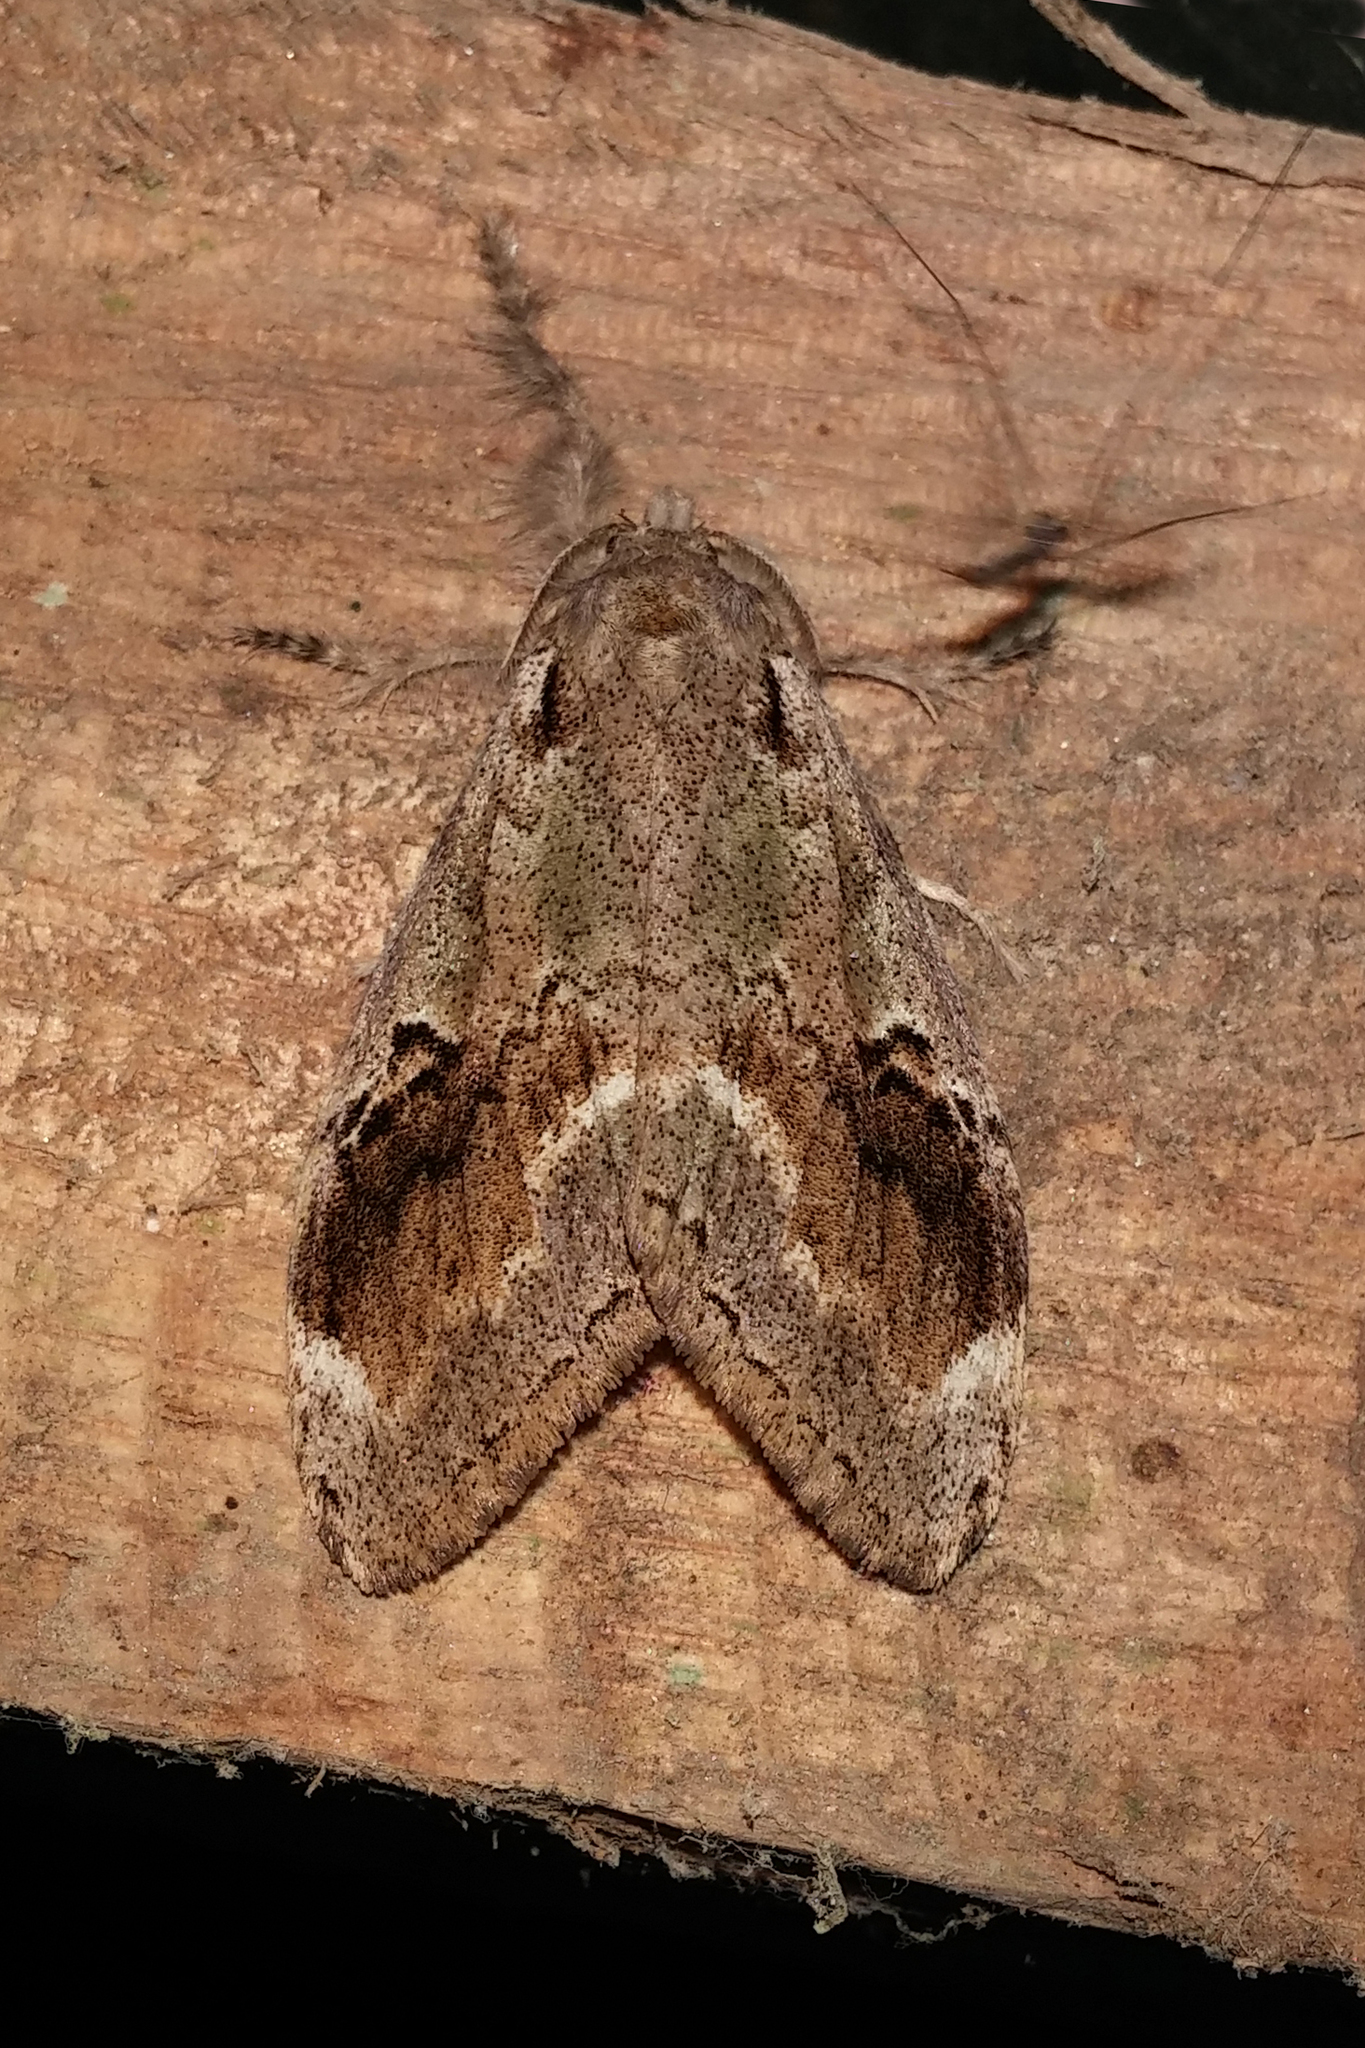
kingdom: Animalia
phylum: Arthropoda
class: Insecta
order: Lepidoptera
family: Erebidae
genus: Olene
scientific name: Olene mendosa
